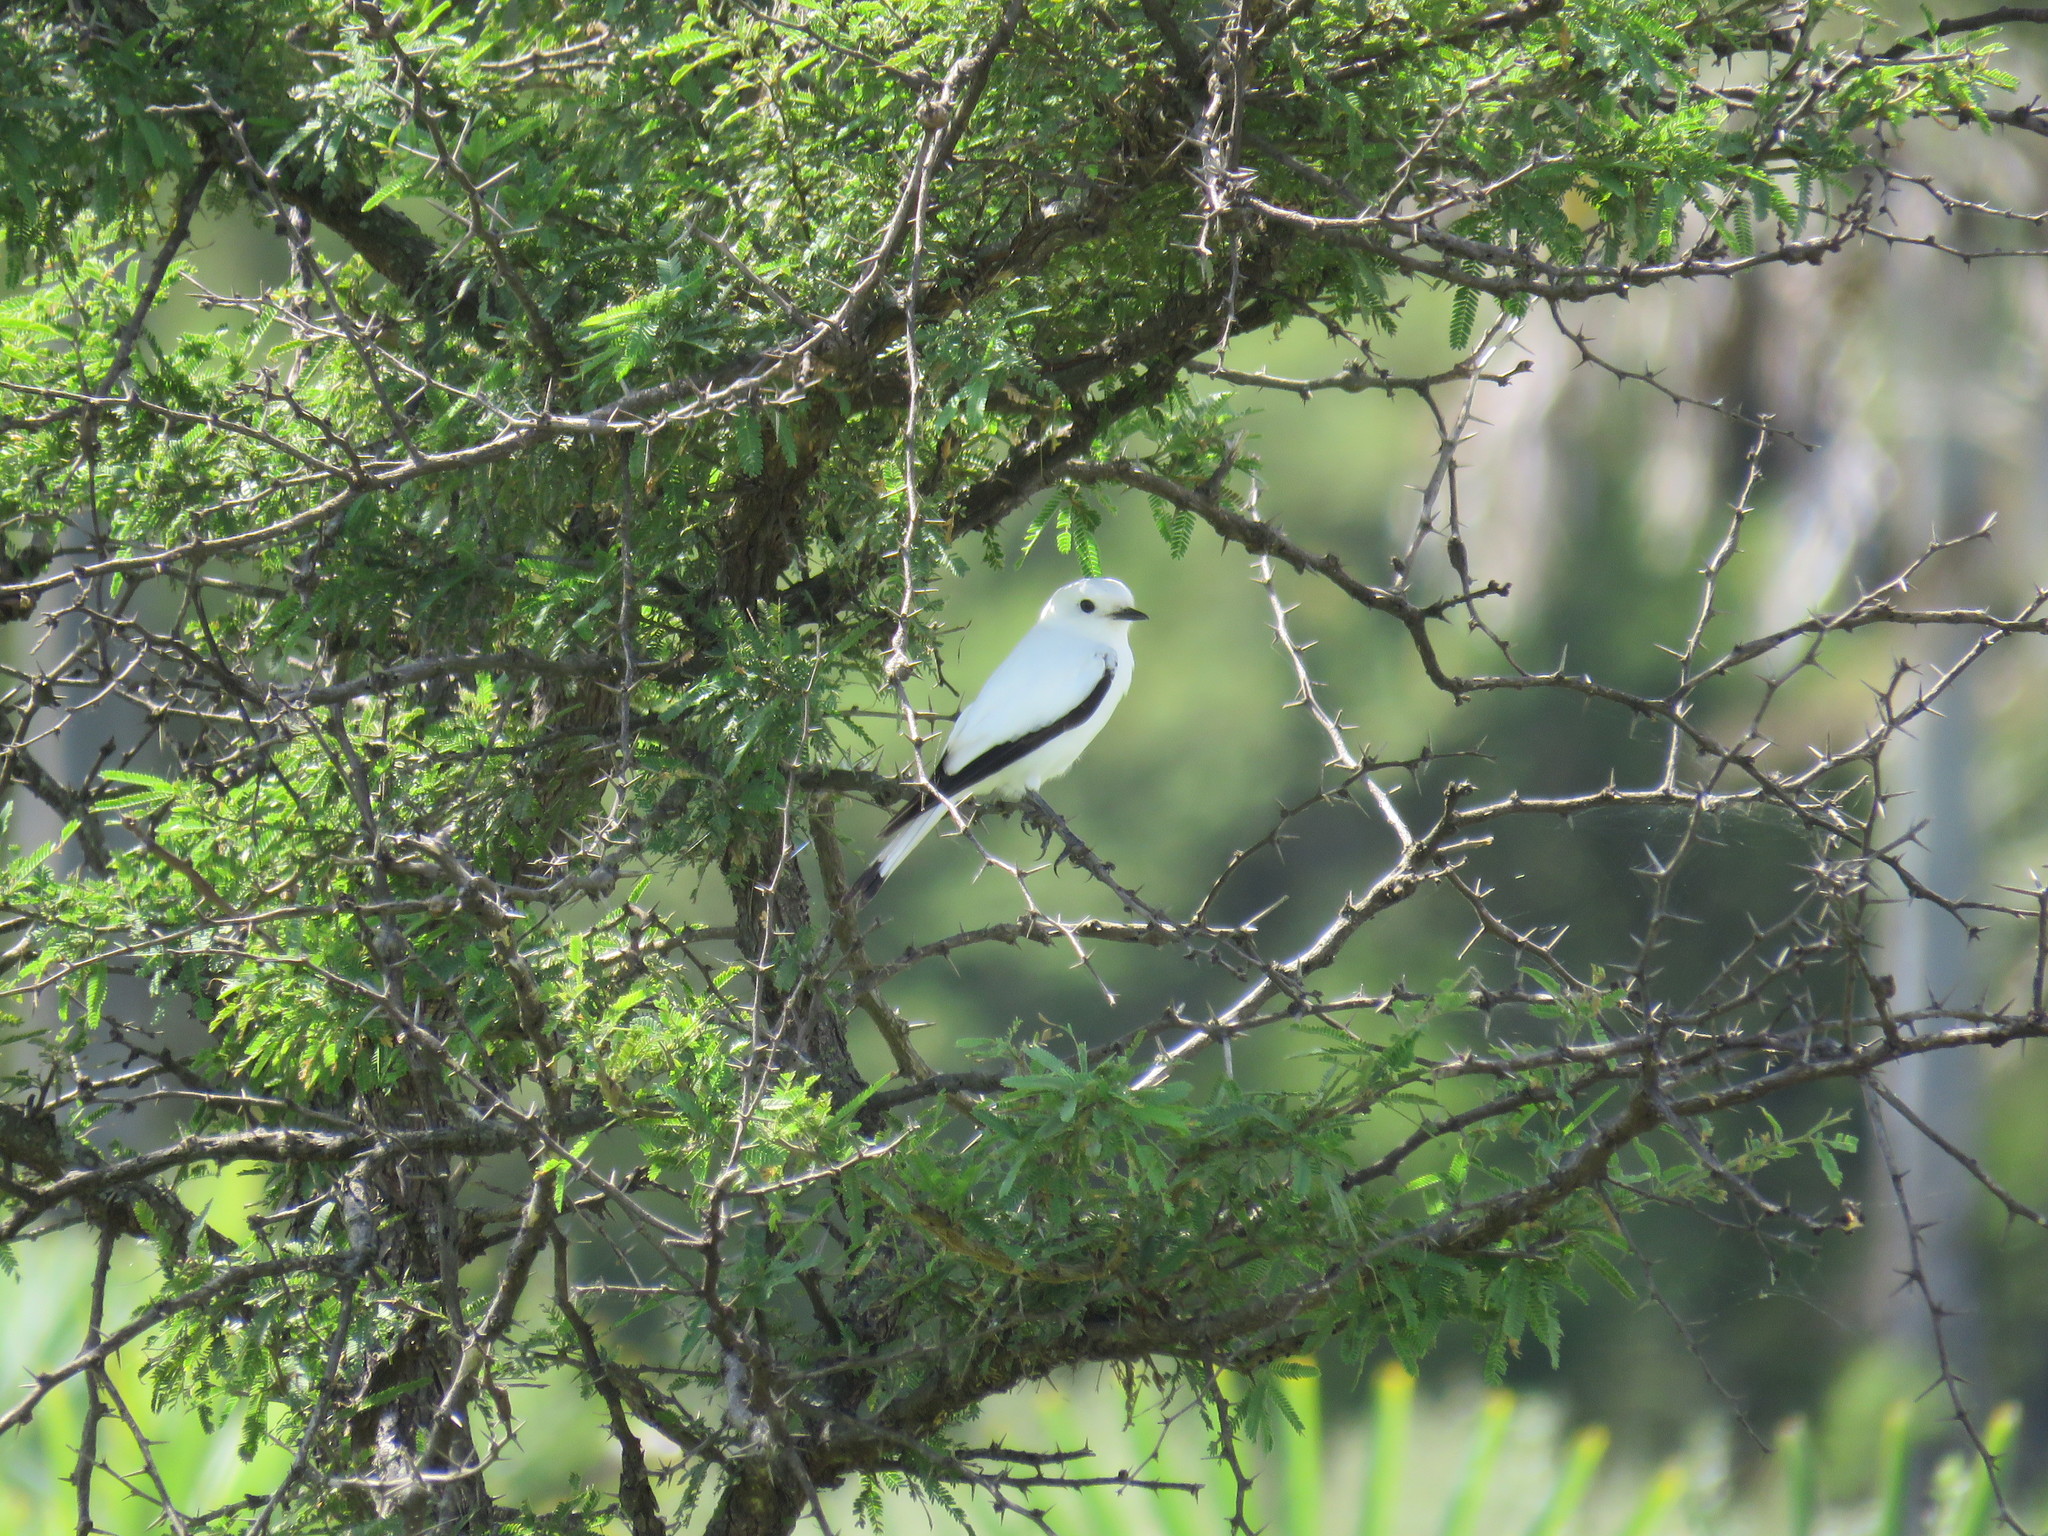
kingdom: Animalia
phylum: Chordata
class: Aves
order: Passeriformes
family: Tyrannidae
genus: Xolmis
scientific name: Xolmis irupero
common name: White monjita
